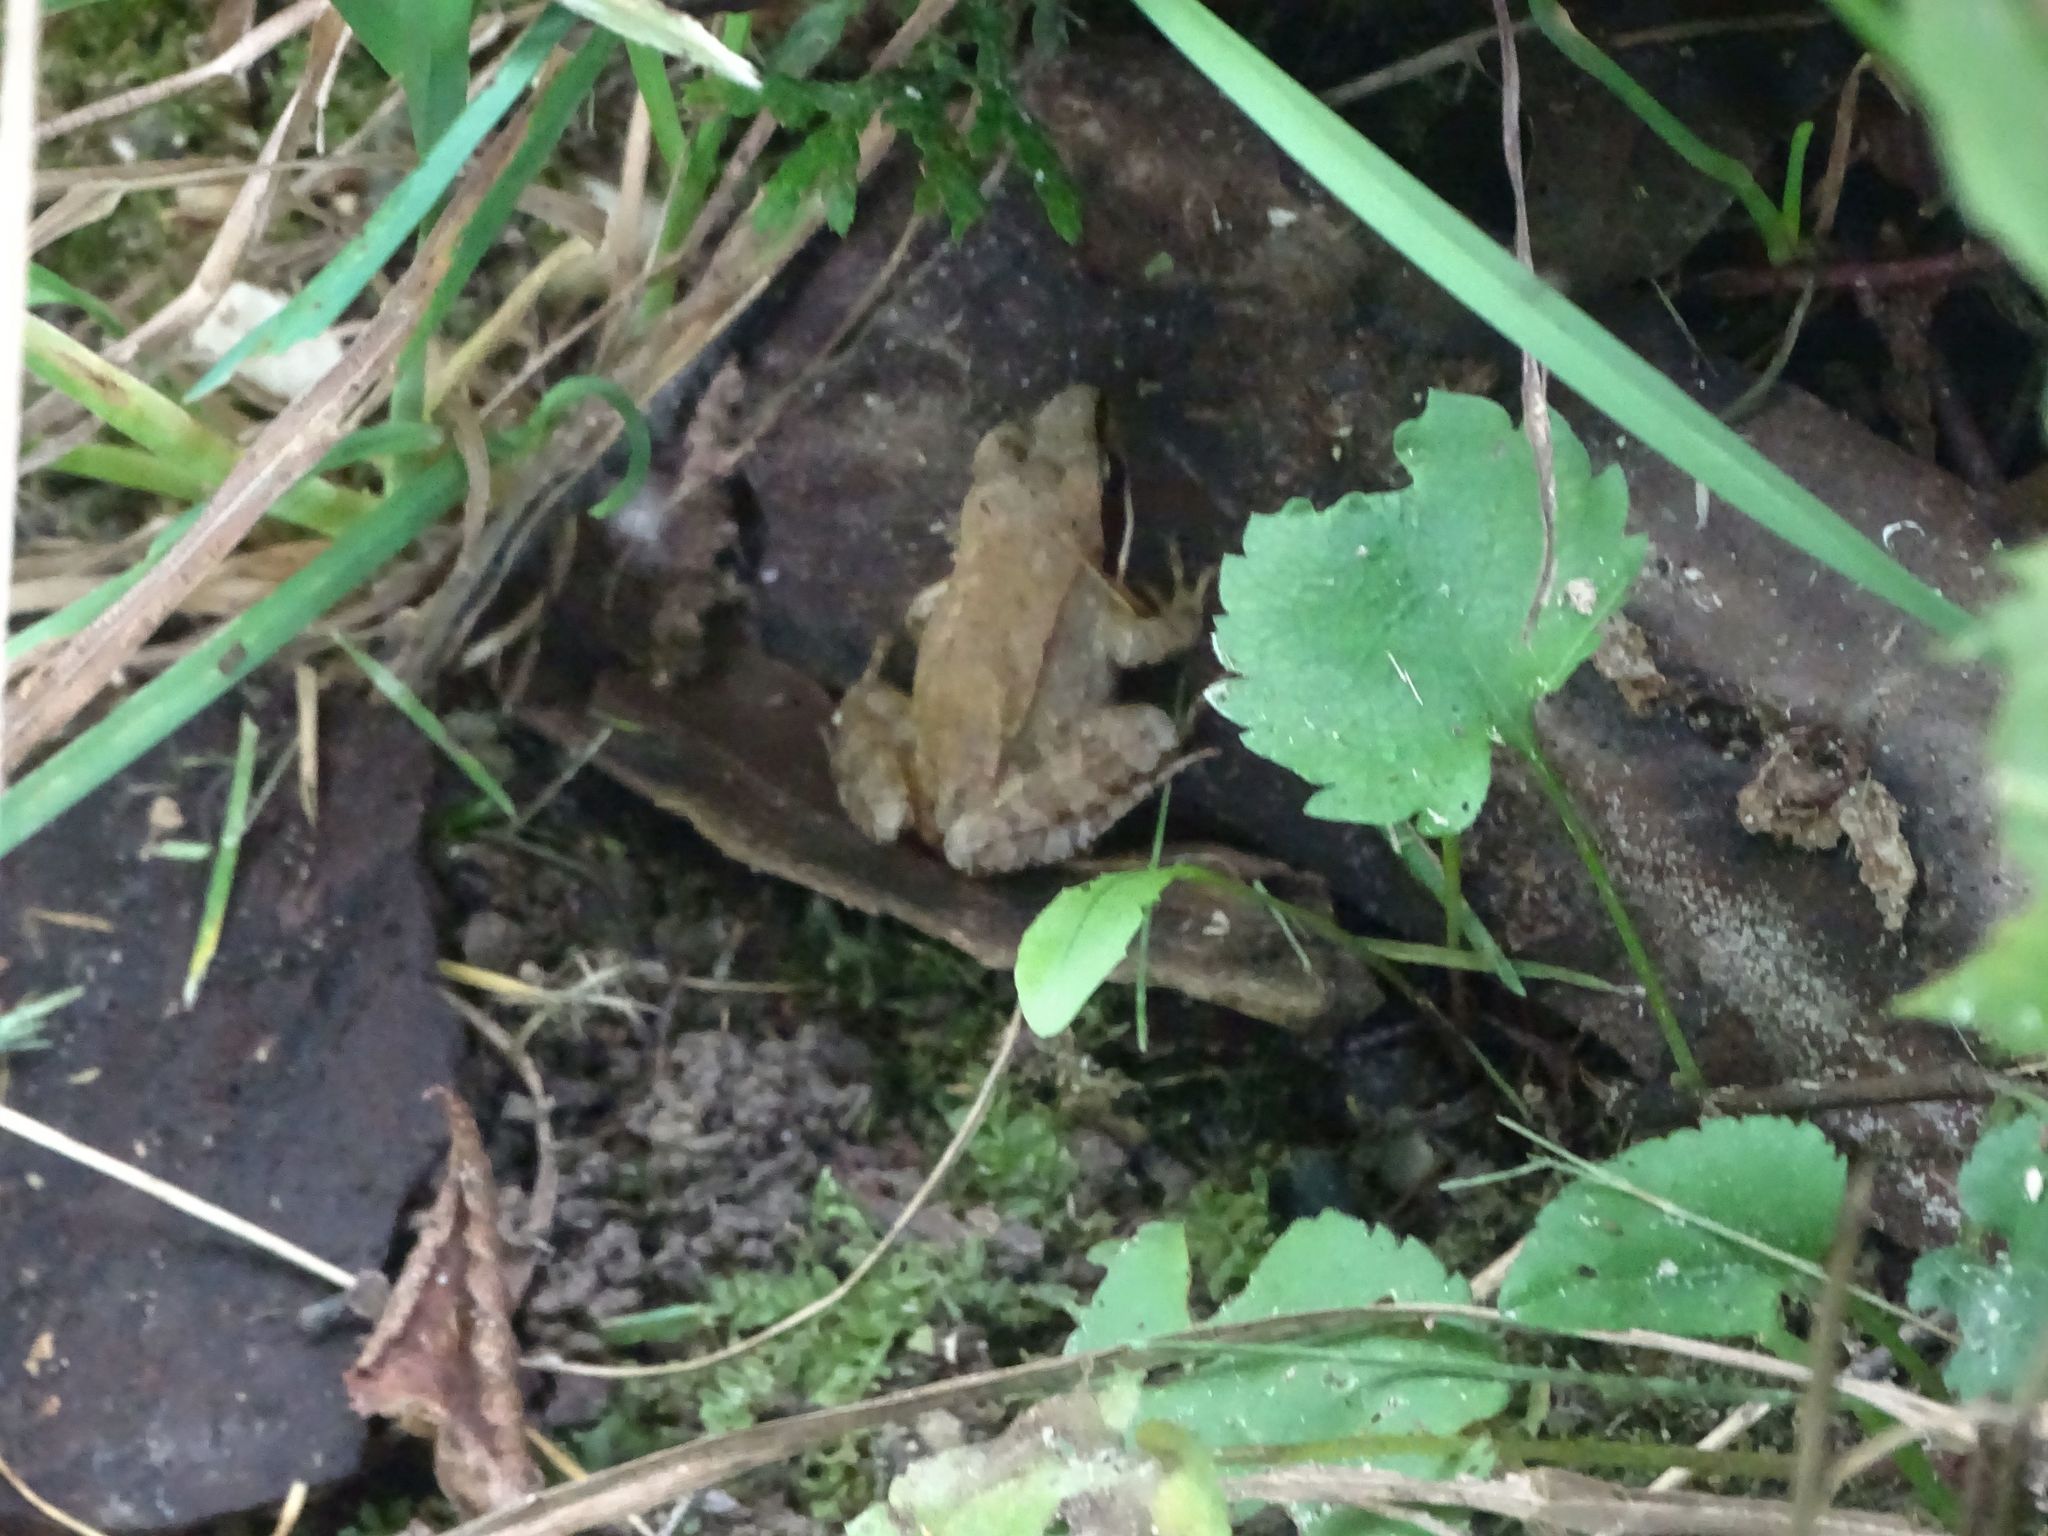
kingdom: Animalia
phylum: Chordata
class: Amphibia
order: Anura
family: Ranidae
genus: Lithobates
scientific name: Lithobates sylvaticus
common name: Wood frog
